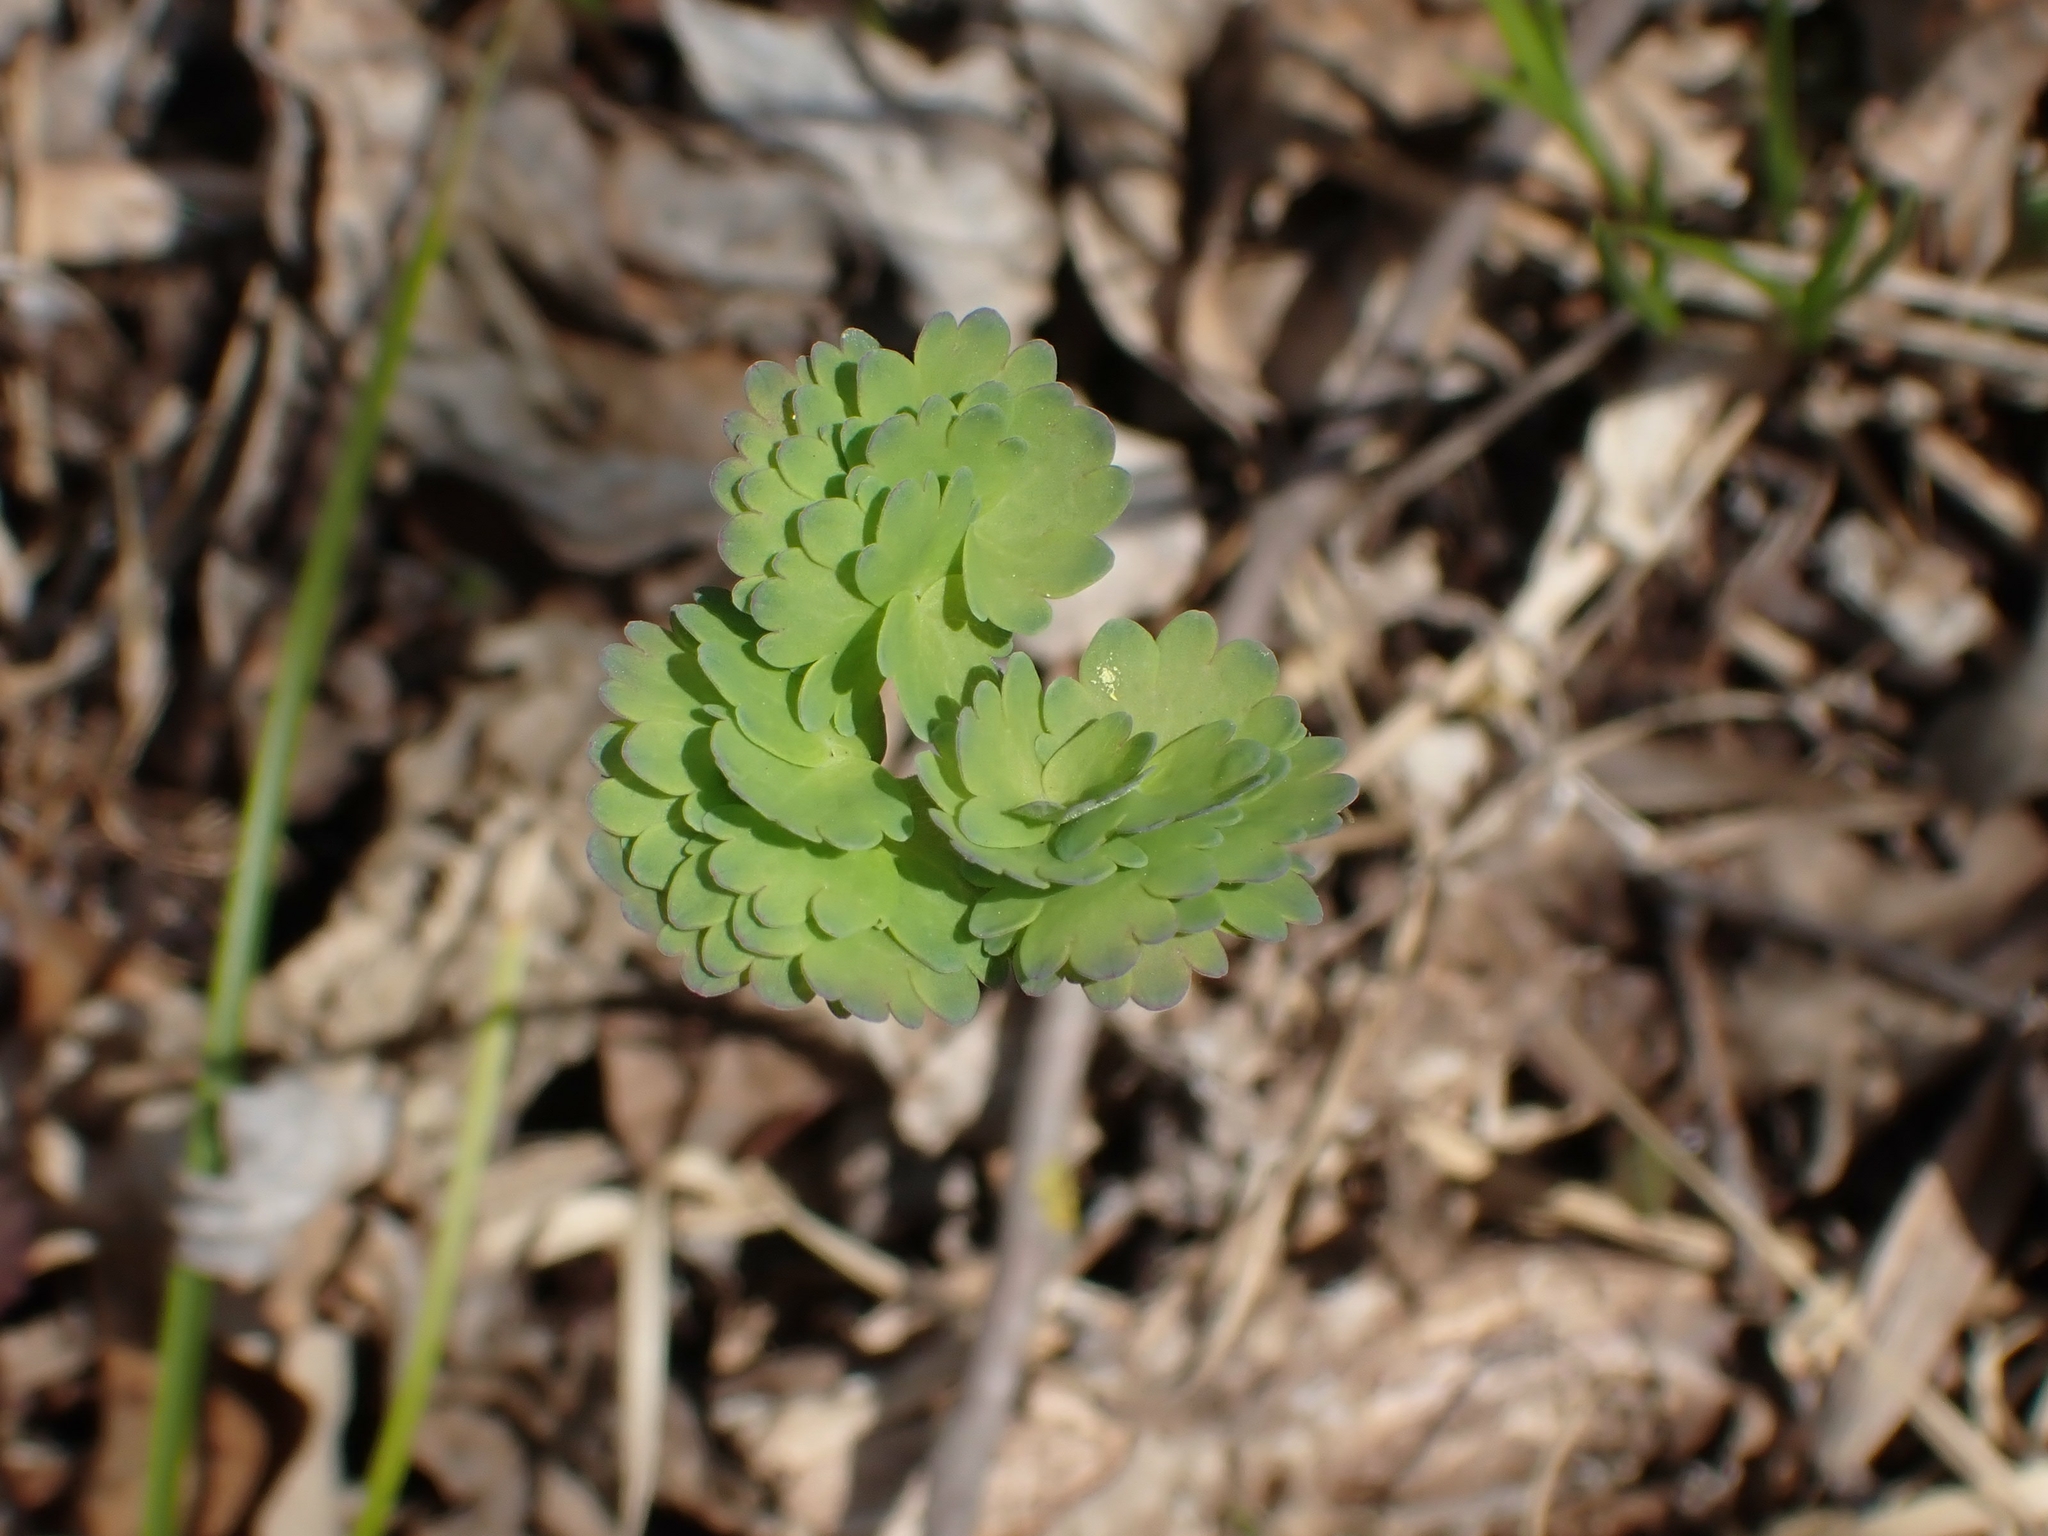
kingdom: Plantae
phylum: Tracheophyta
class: Magnoliopsida
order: Ranunculales
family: Ranunculaceae
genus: Thalictrum
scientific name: Thalictrum venulosum
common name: Early meadow-rue
